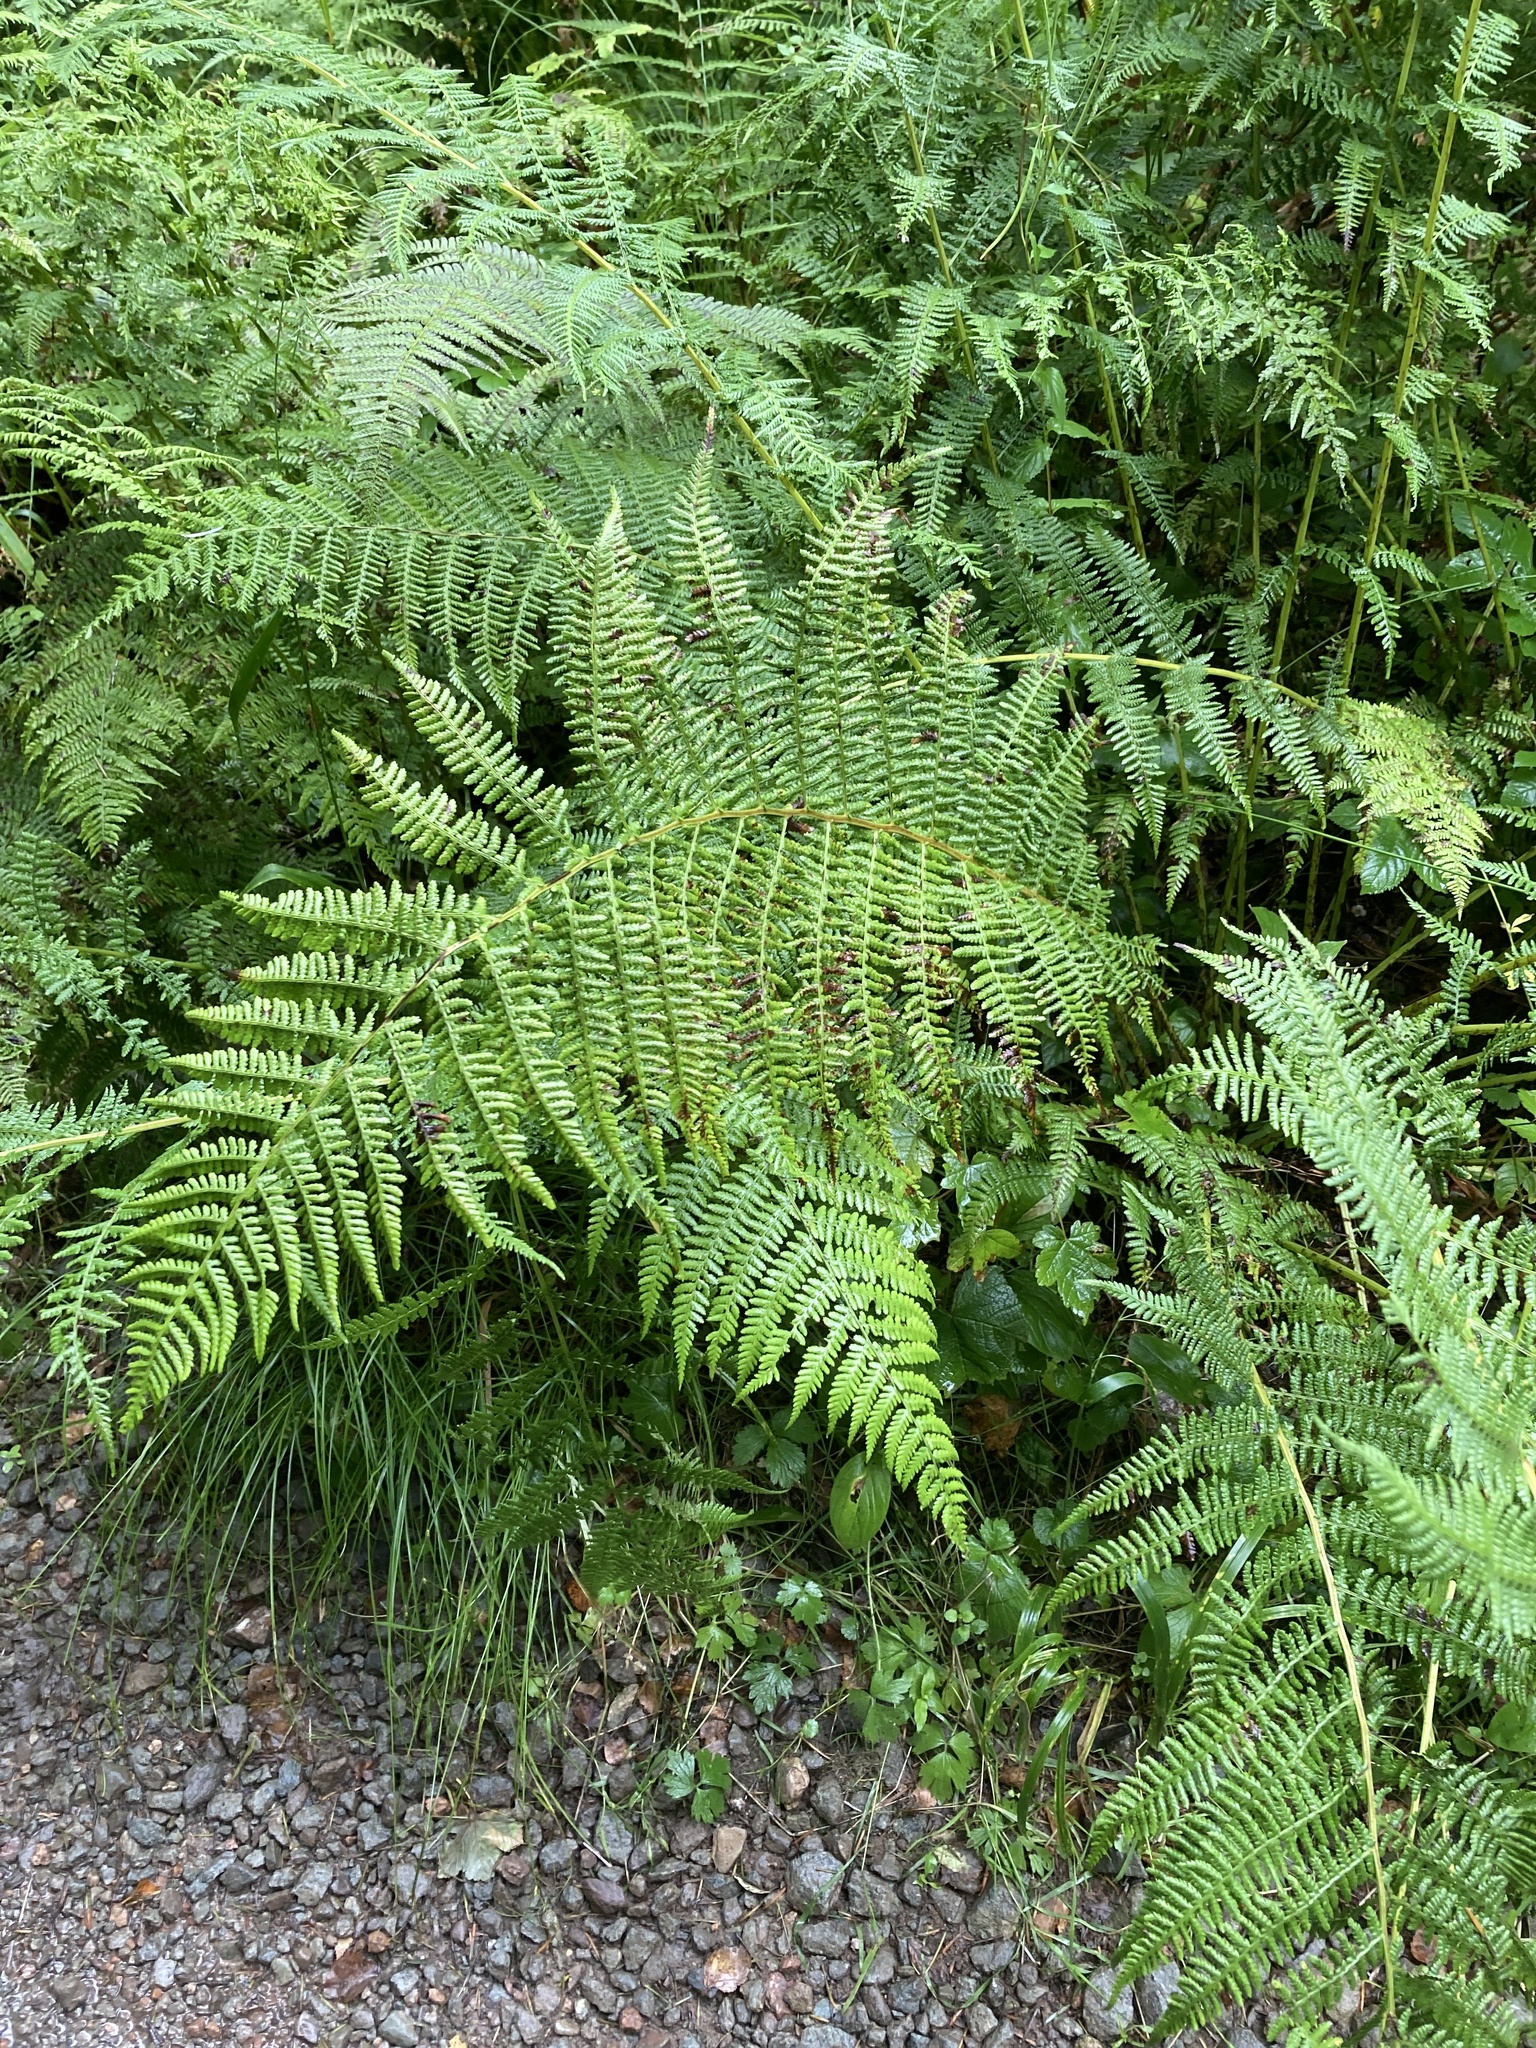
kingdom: Plantae
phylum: Tracheophyta
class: Polypodiopsida
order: Polypodiales
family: Athyriaceae
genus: Athyrium
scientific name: Athyrium filix-femina
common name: Lady fern
